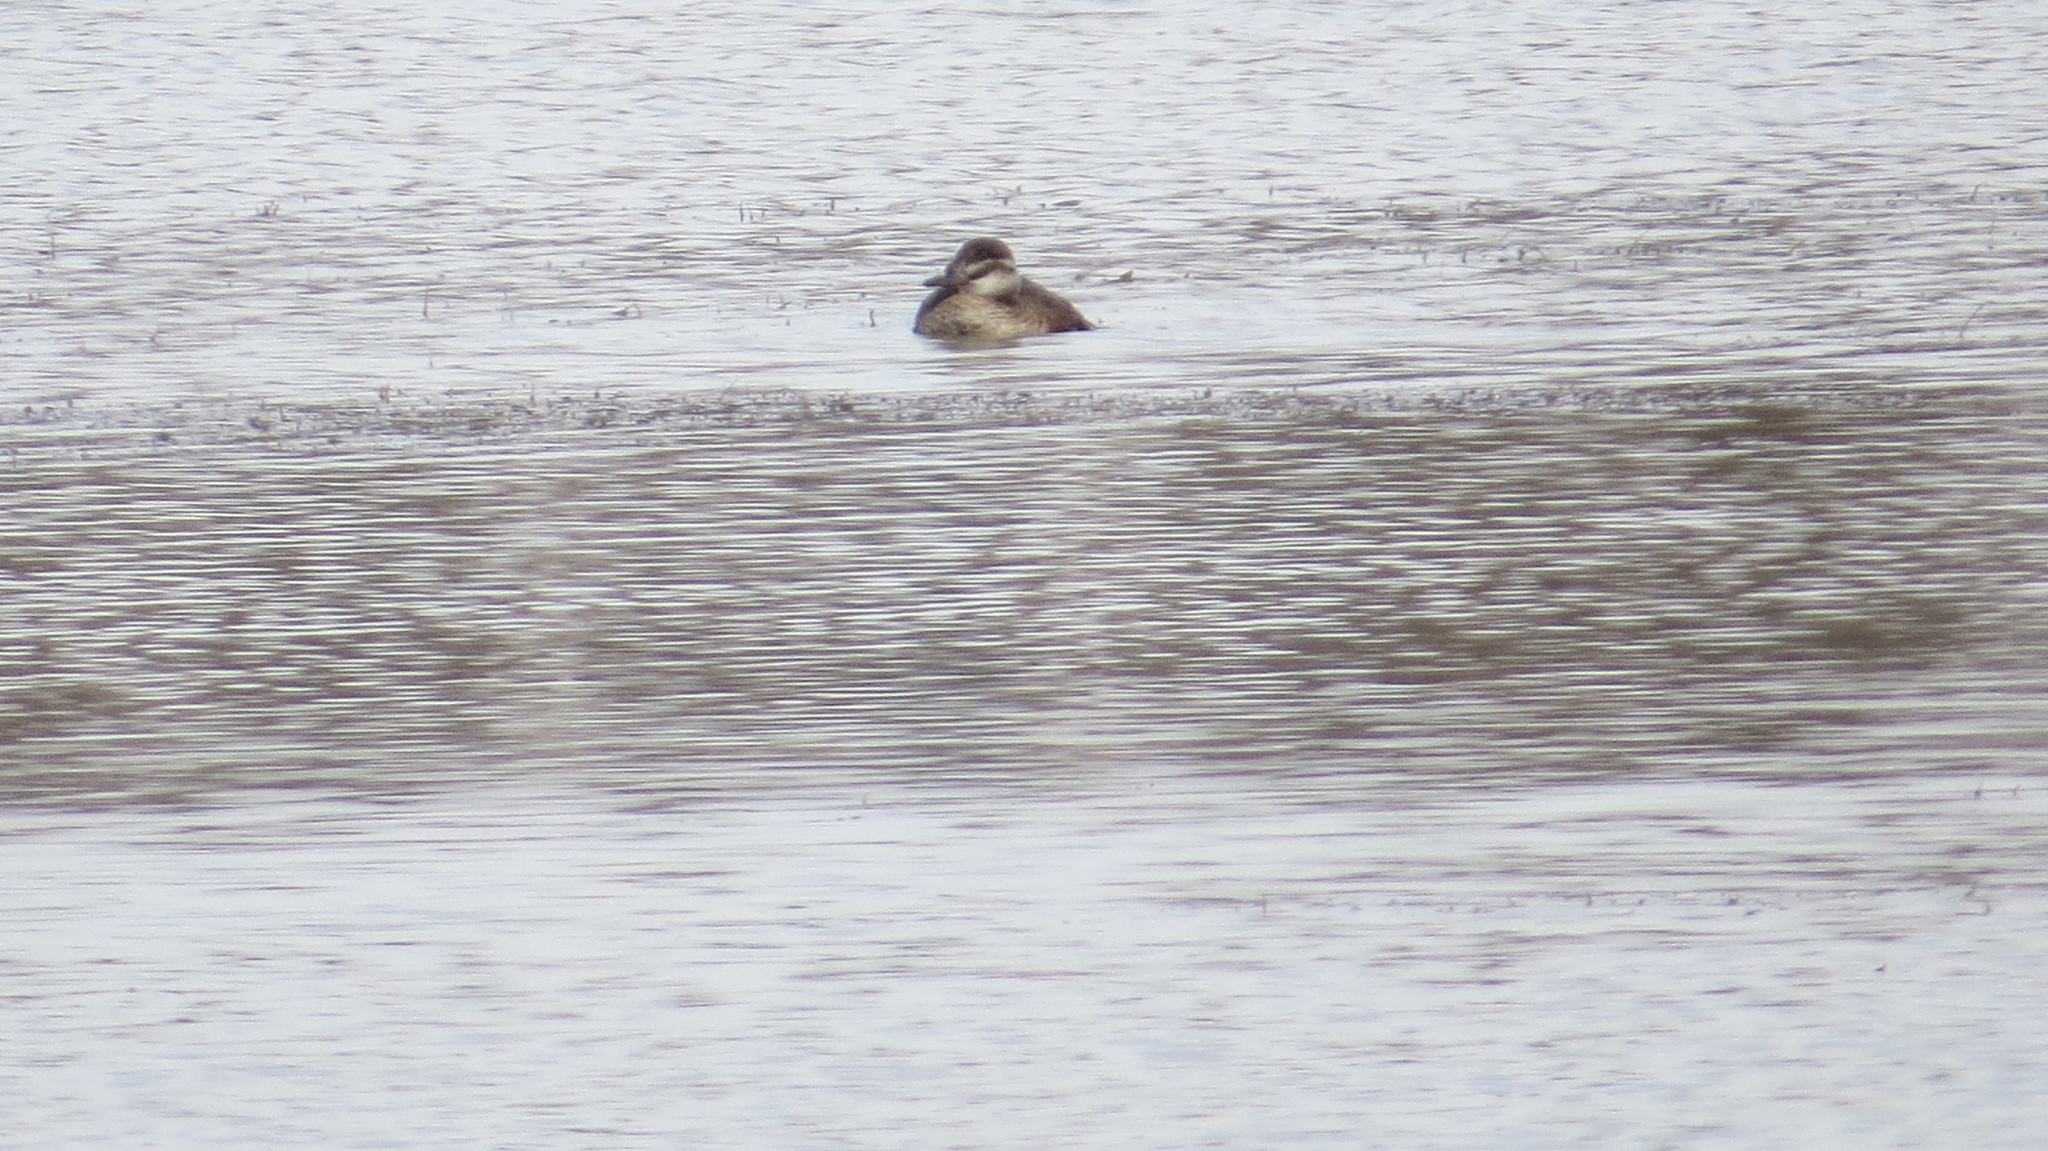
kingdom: Animalia
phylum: Chordata
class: Aves
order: Anseriformes
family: Anatidae
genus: Oxyura
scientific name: Oxyura vittata
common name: Lake duck
